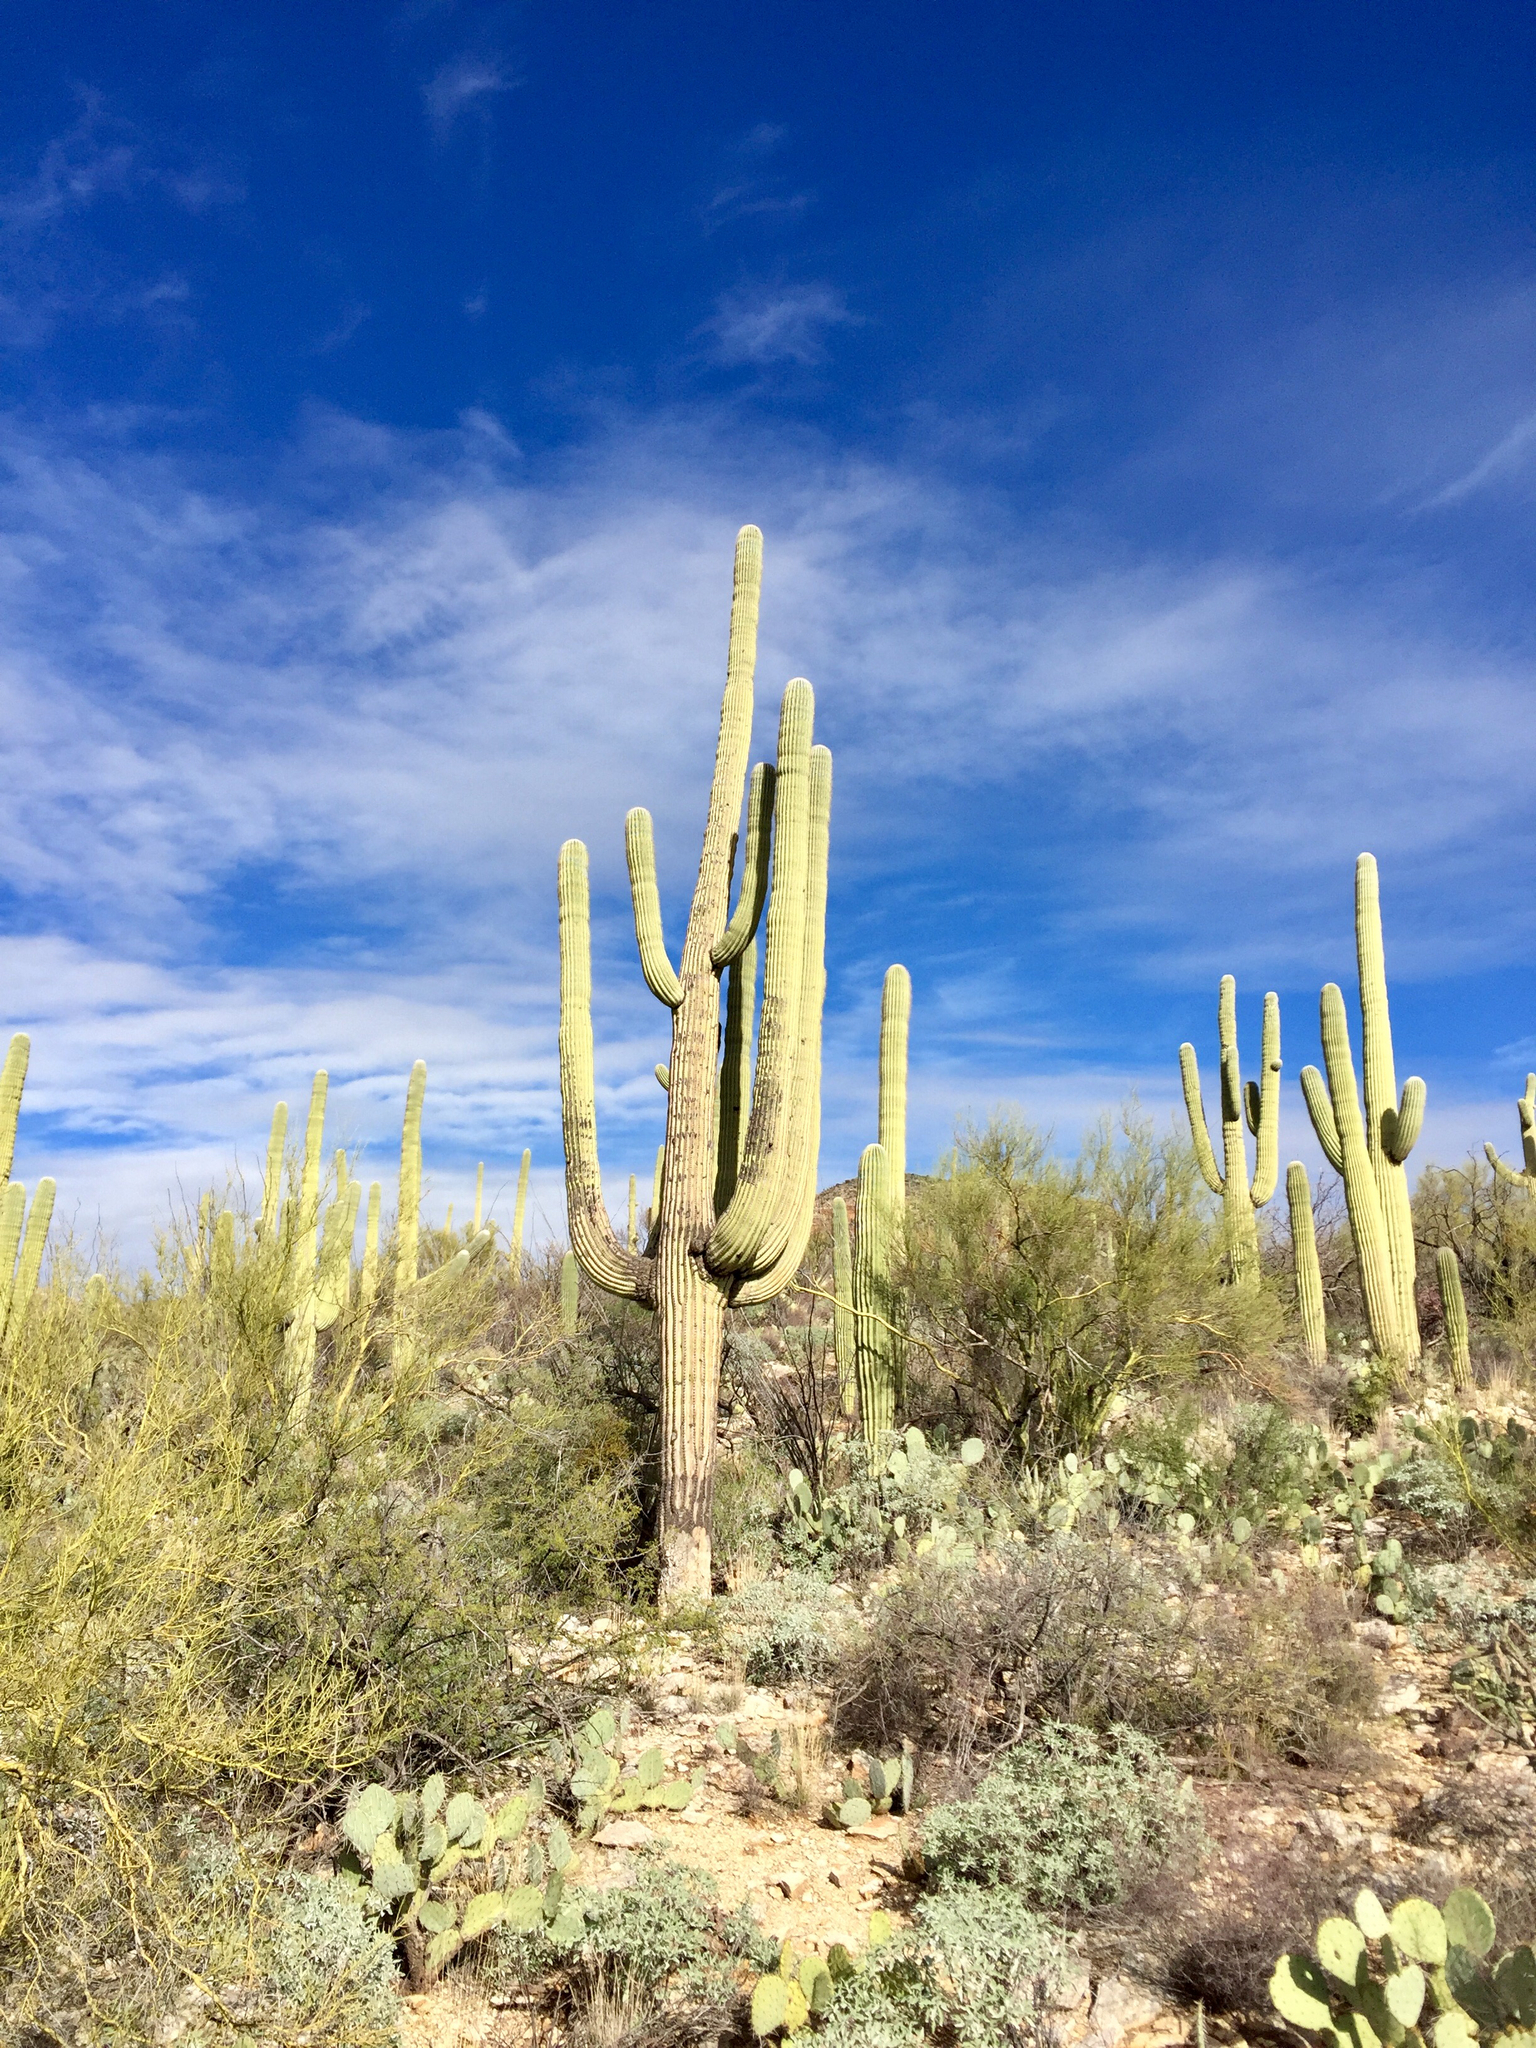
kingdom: Plantae
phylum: Tracheophyta
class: Magnoliopsida
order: Caryophyllales
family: Cactaceae
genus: Carnegiea
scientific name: Carnegiea gigantea
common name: Saguaro
